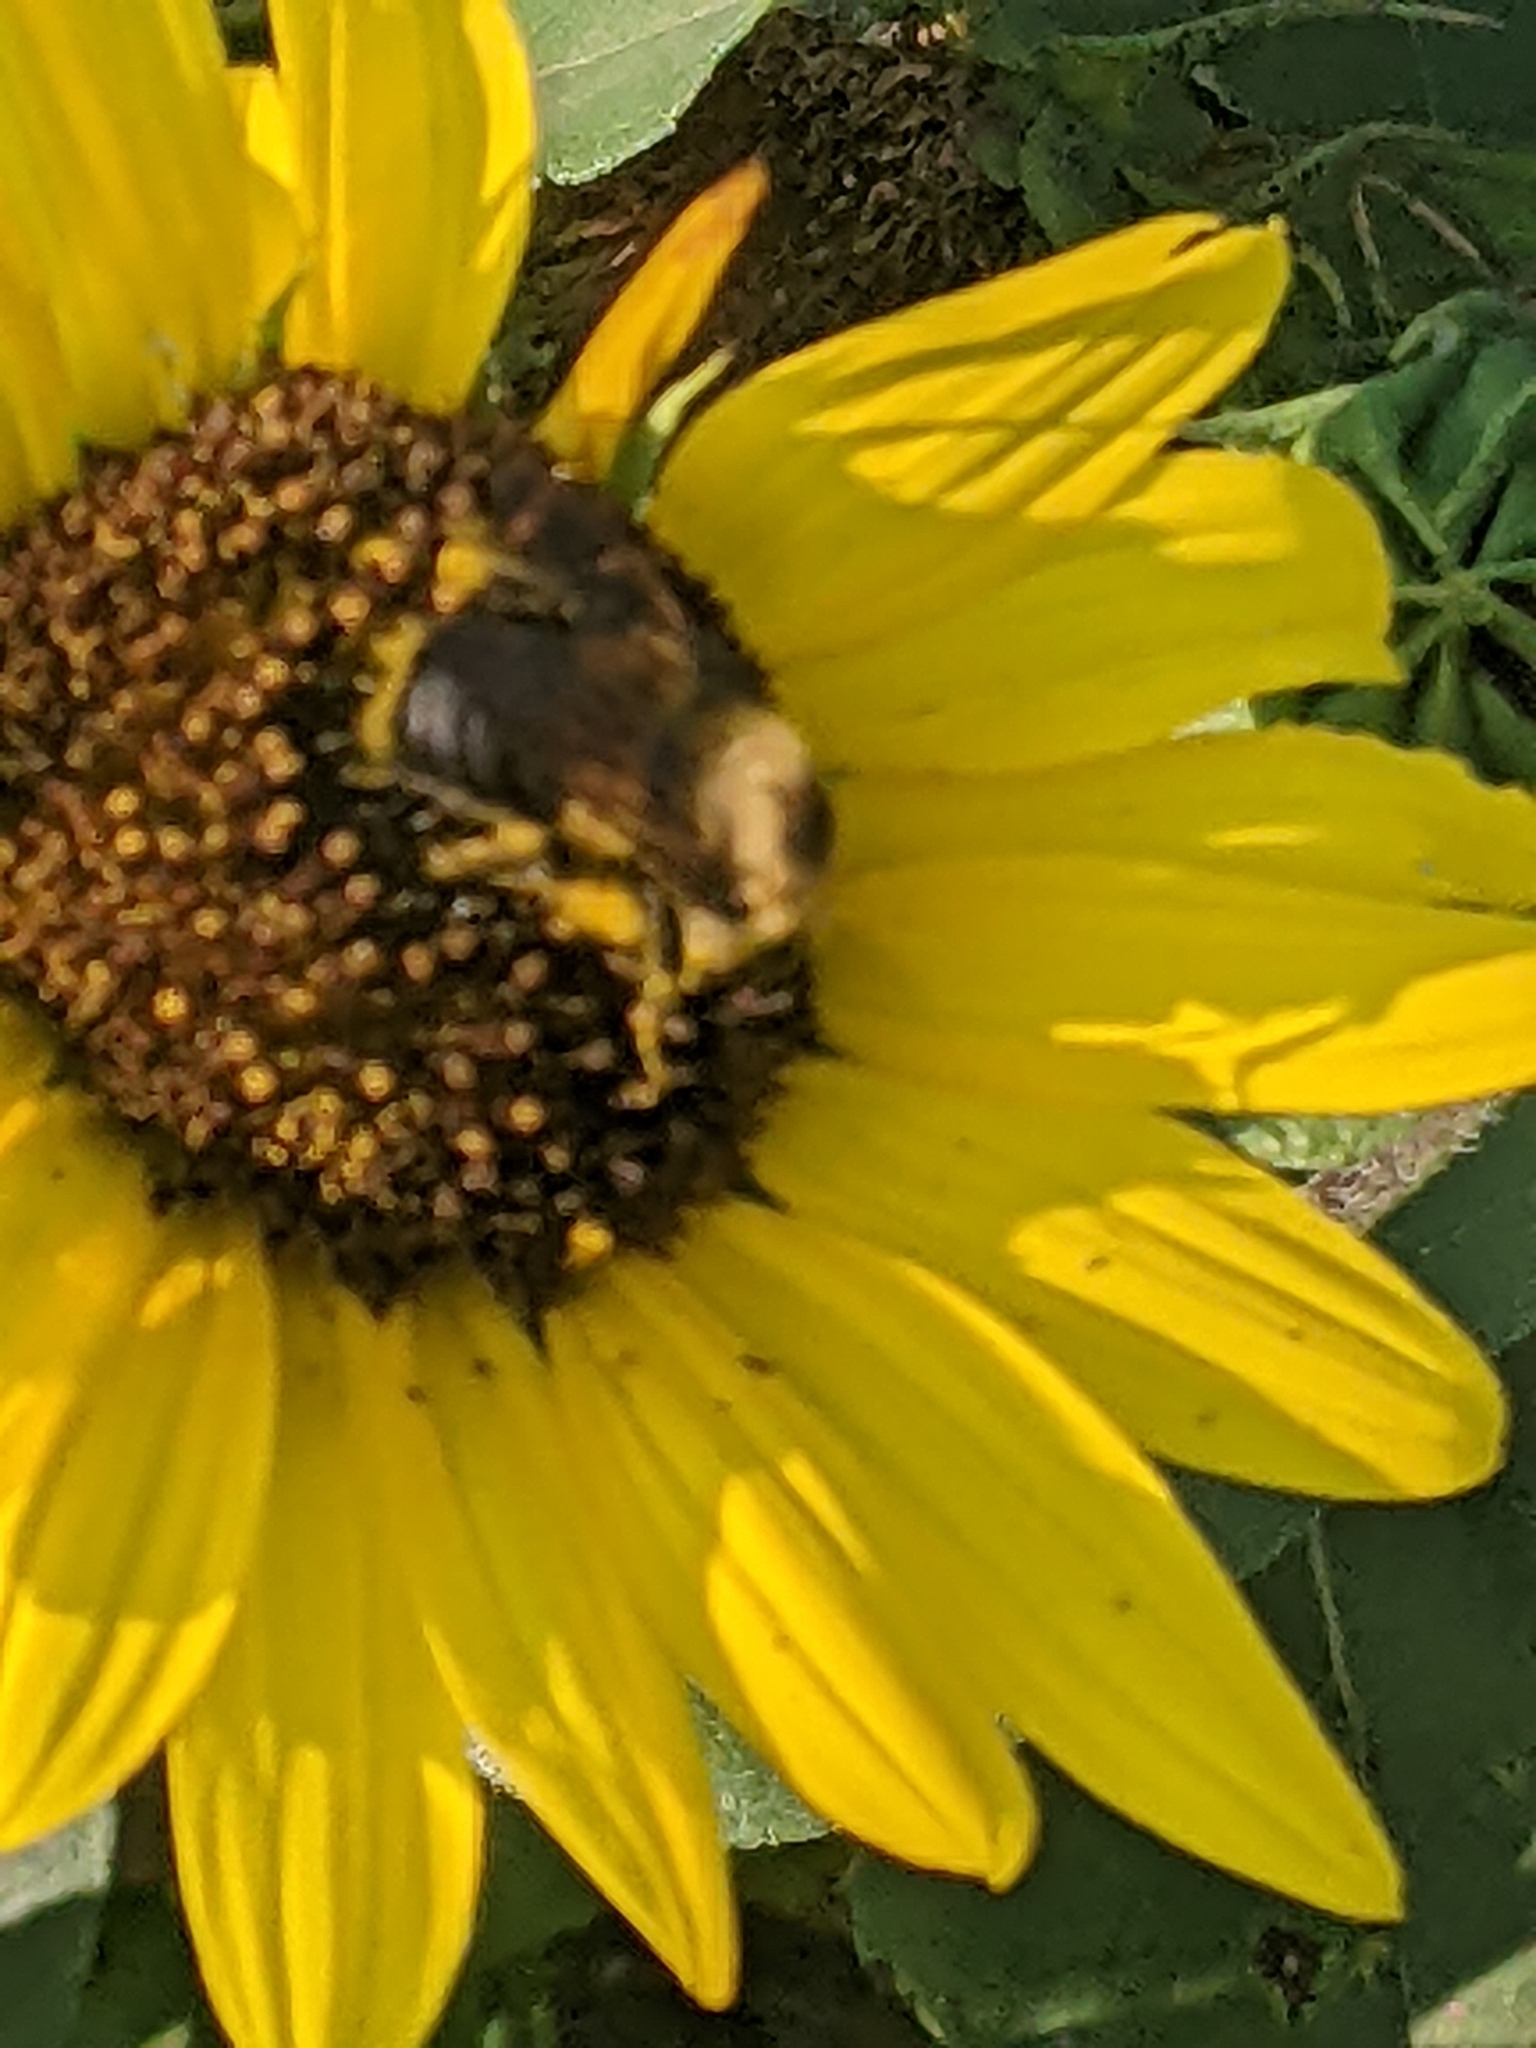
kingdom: Animalia
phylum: Arthropoda
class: Insecta
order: Hymenoptera
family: Apidae
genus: Bombus
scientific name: Bombus griseocollis
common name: Brown-belted bumble bee
